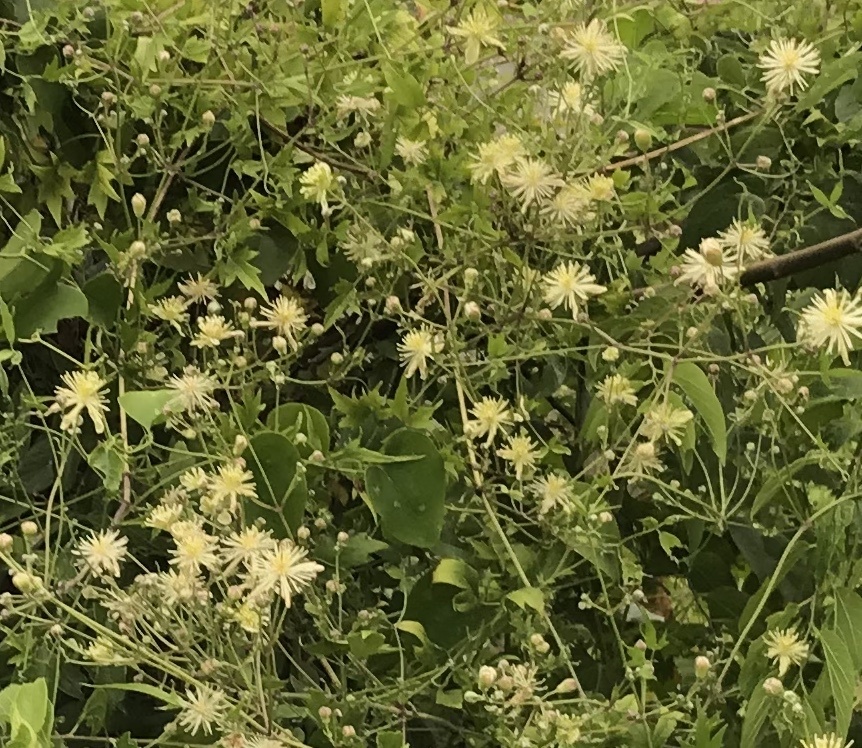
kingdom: Plantae
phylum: Tracheophyta
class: Magnoliopsida
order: Ranunculales
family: Ranunculaceae
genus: Clematis
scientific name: Clematis drummondii
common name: Texas virgin's bower
